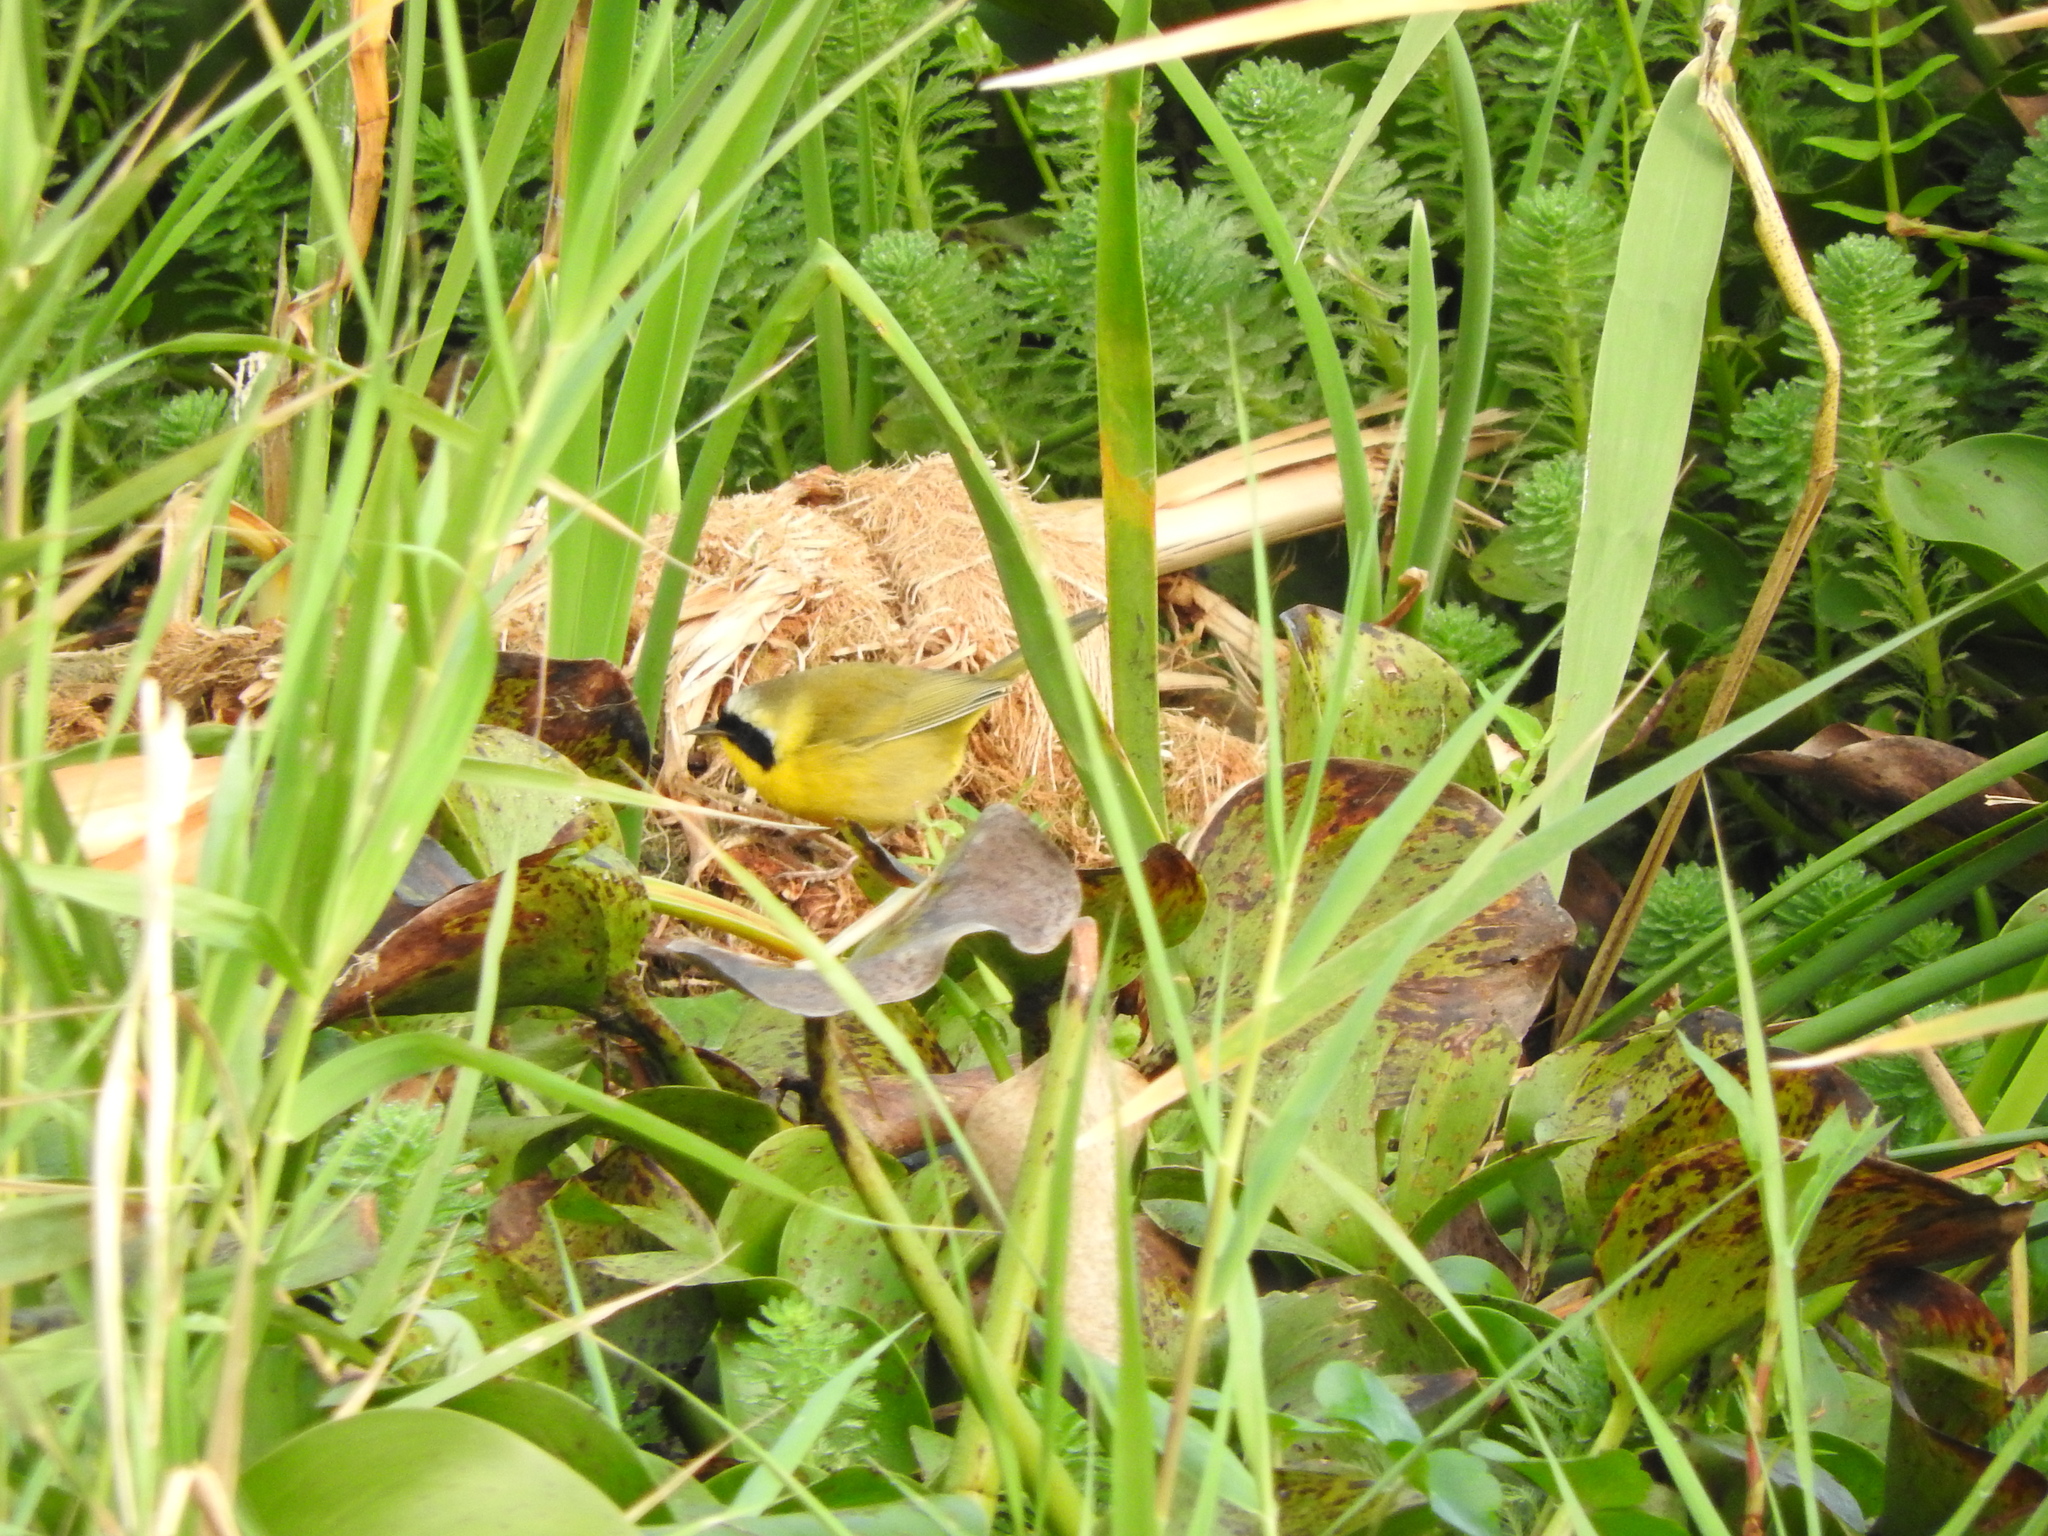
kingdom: Animalia
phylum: Chordata
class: Aves
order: Passeriformes
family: Parulidae
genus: Geothlypis
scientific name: Geothlypis trichas
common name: Common yellowthroat
